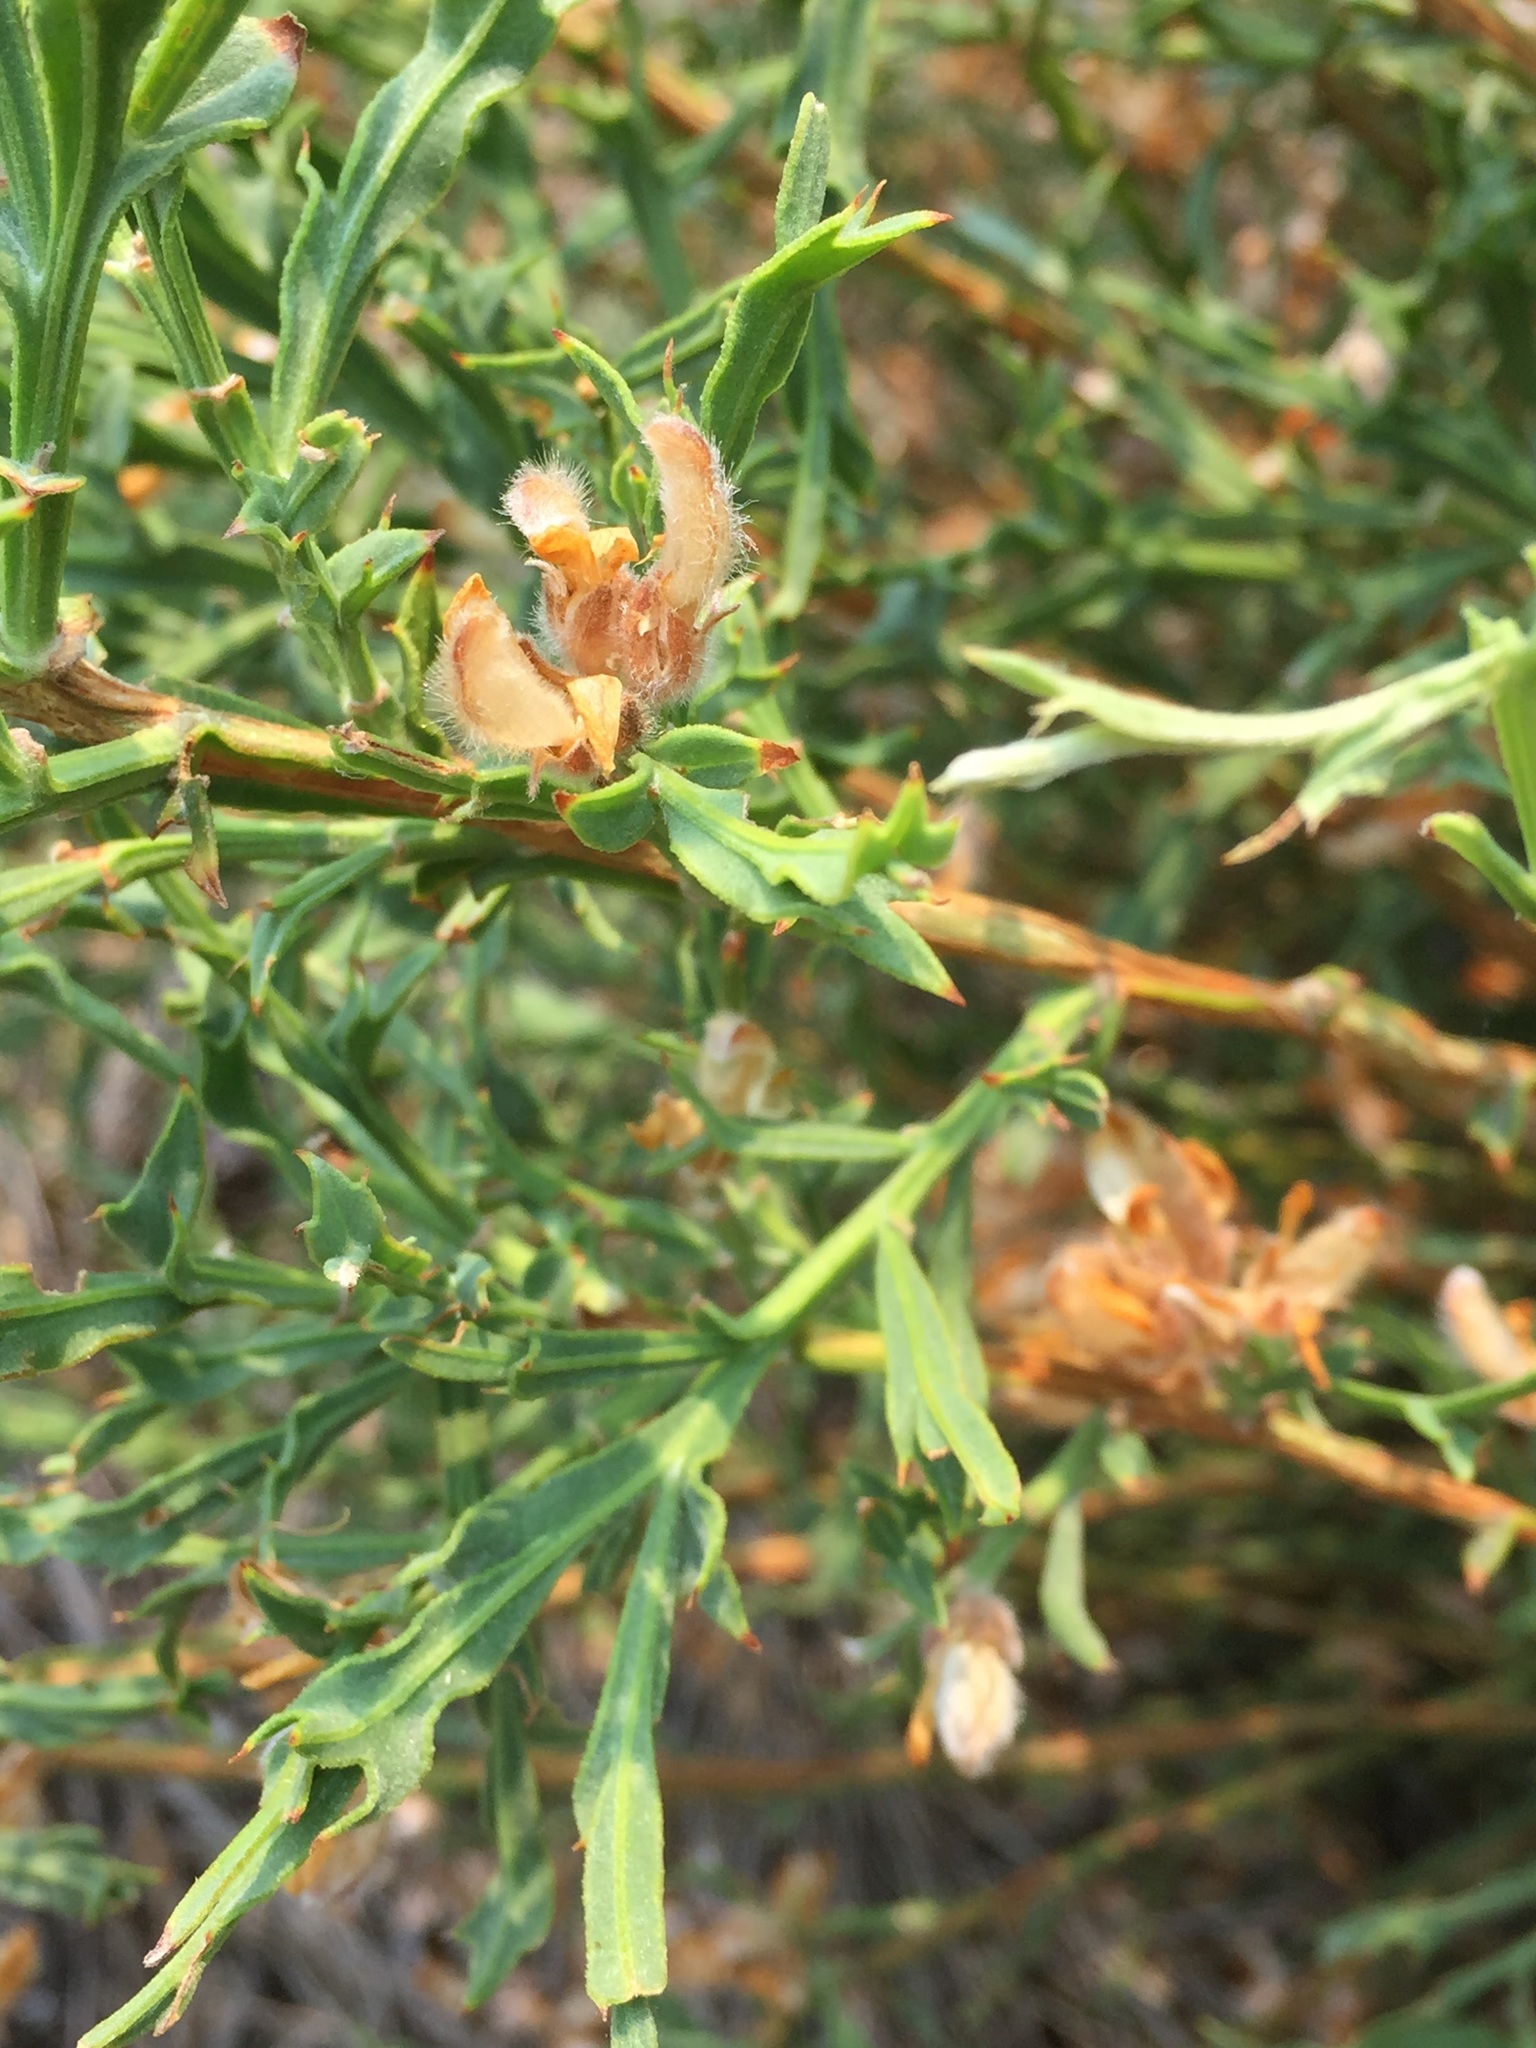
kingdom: Plantae
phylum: Tracheophyta
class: Magnoliopsida
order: Fabales
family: Fabaceae
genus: Genista
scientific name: Genista tridentata
